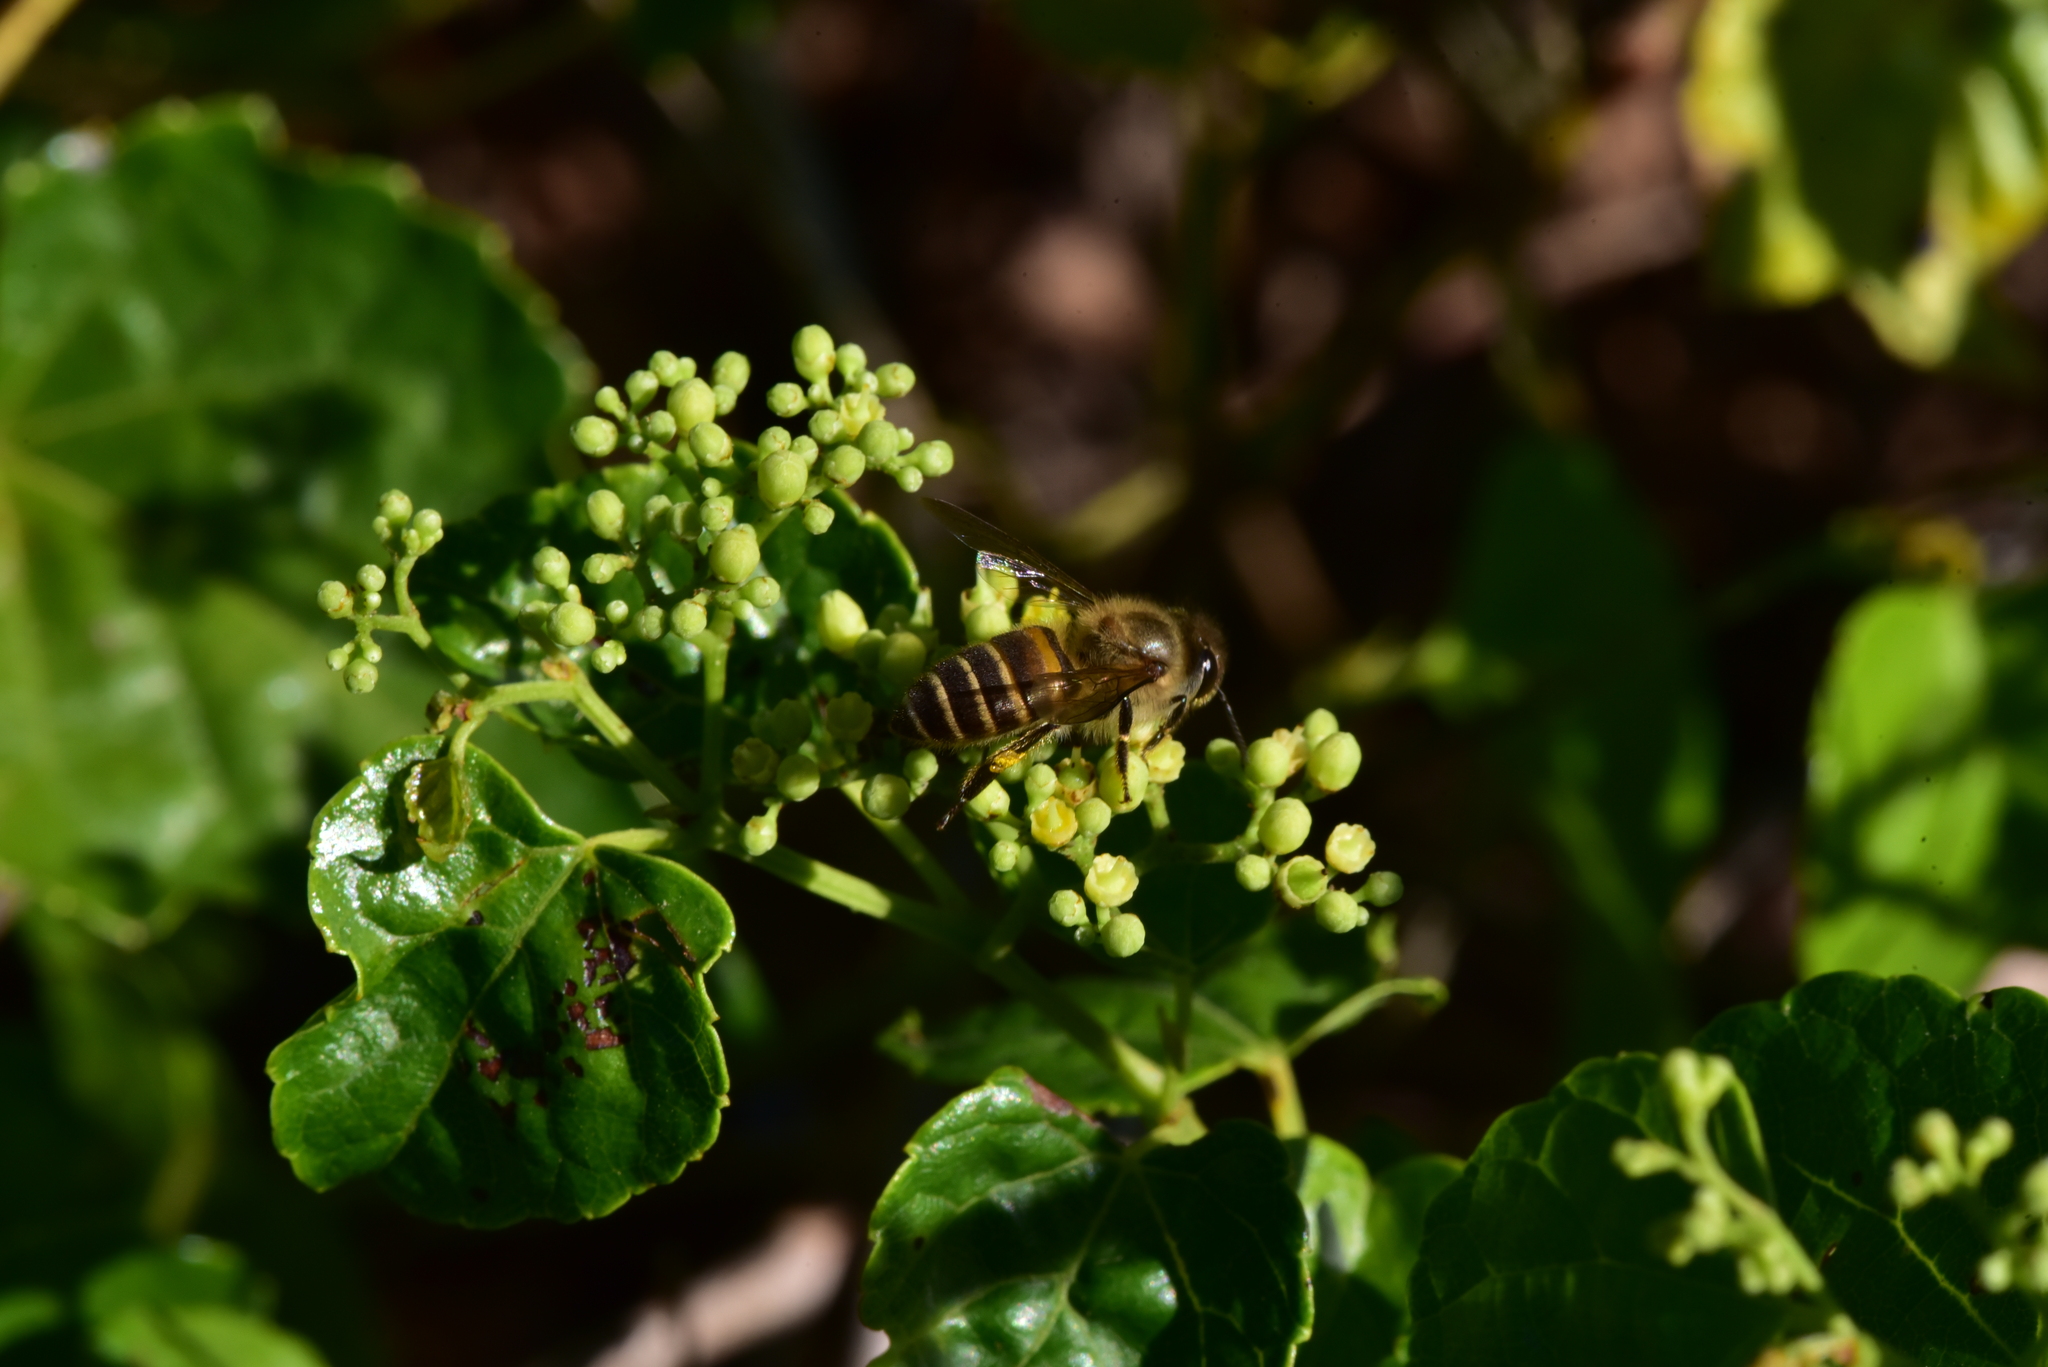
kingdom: Animalia
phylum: Arthropoda
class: Insecta
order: Hymenoptera
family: Apidae
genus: Apis
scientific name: Apis cerana
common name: Honey bee
